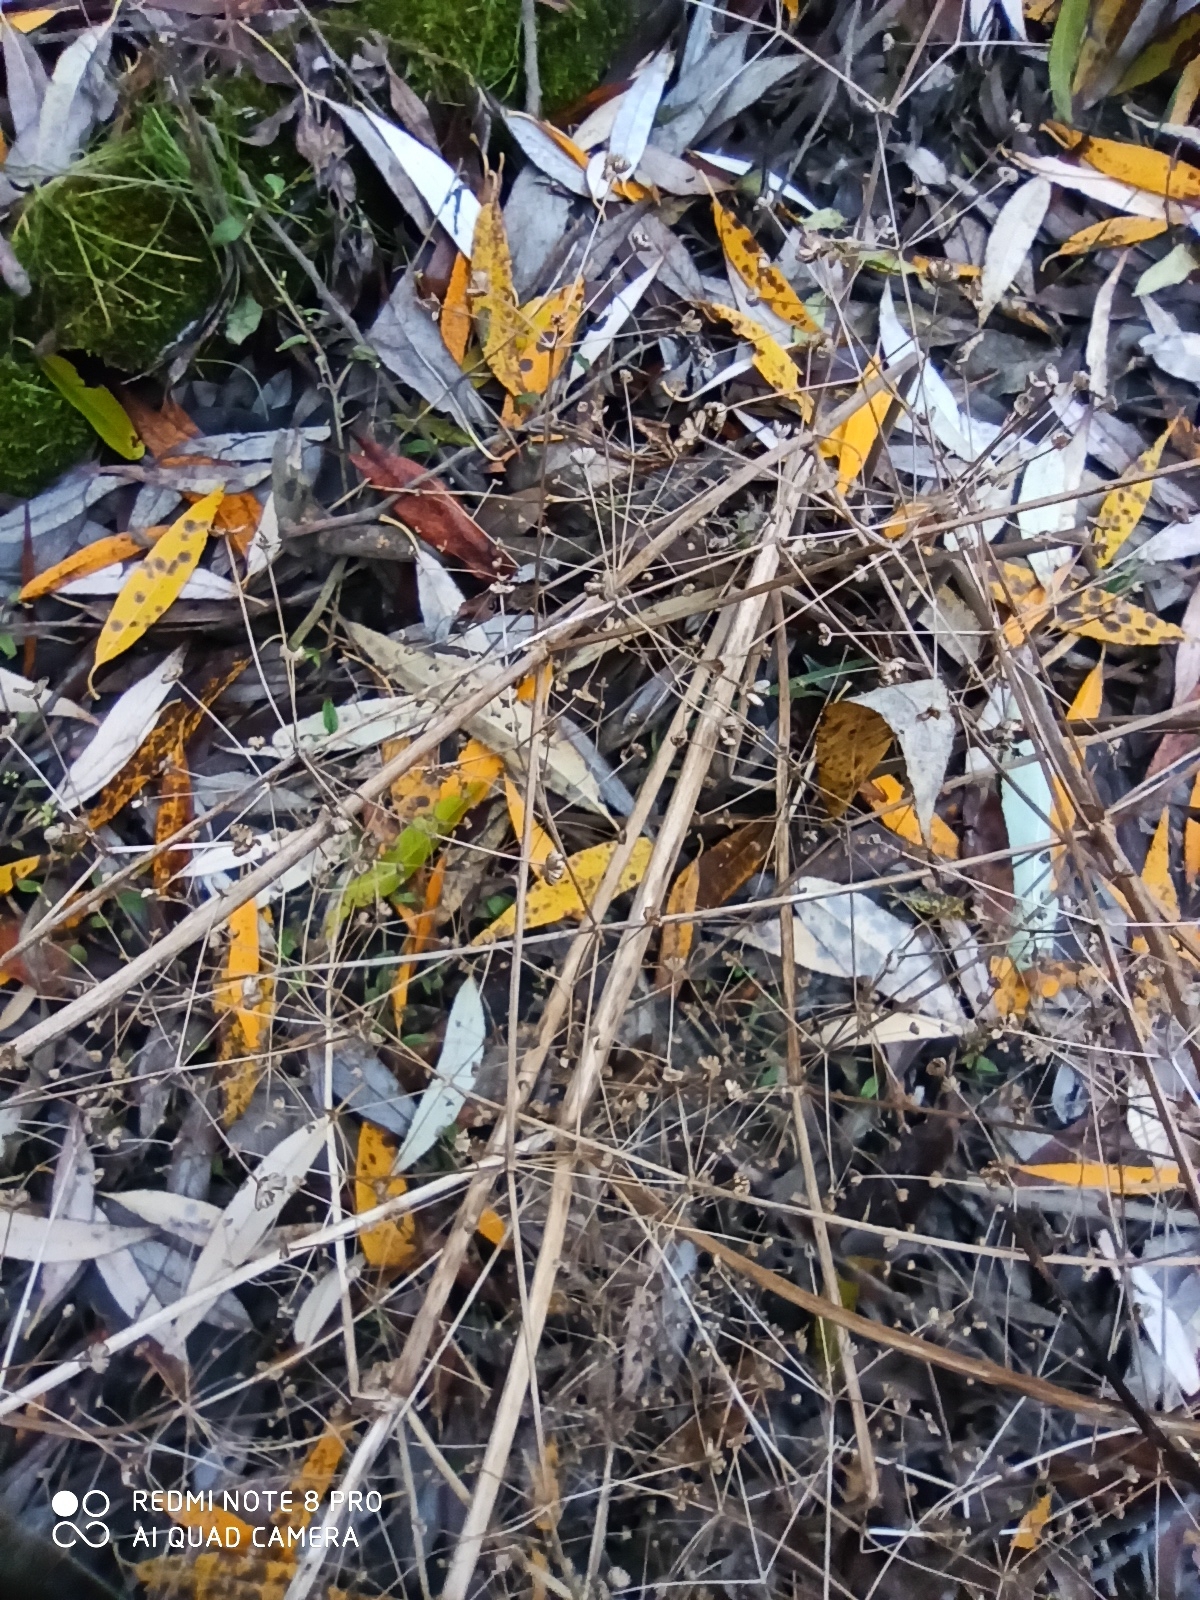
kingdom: Plantae
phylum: Tracheophyta
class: Liliopsida
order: Alismatales
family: Alismataceae
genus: Alisma
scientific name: Alisma plantago-aquatica
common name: Water-plantain
